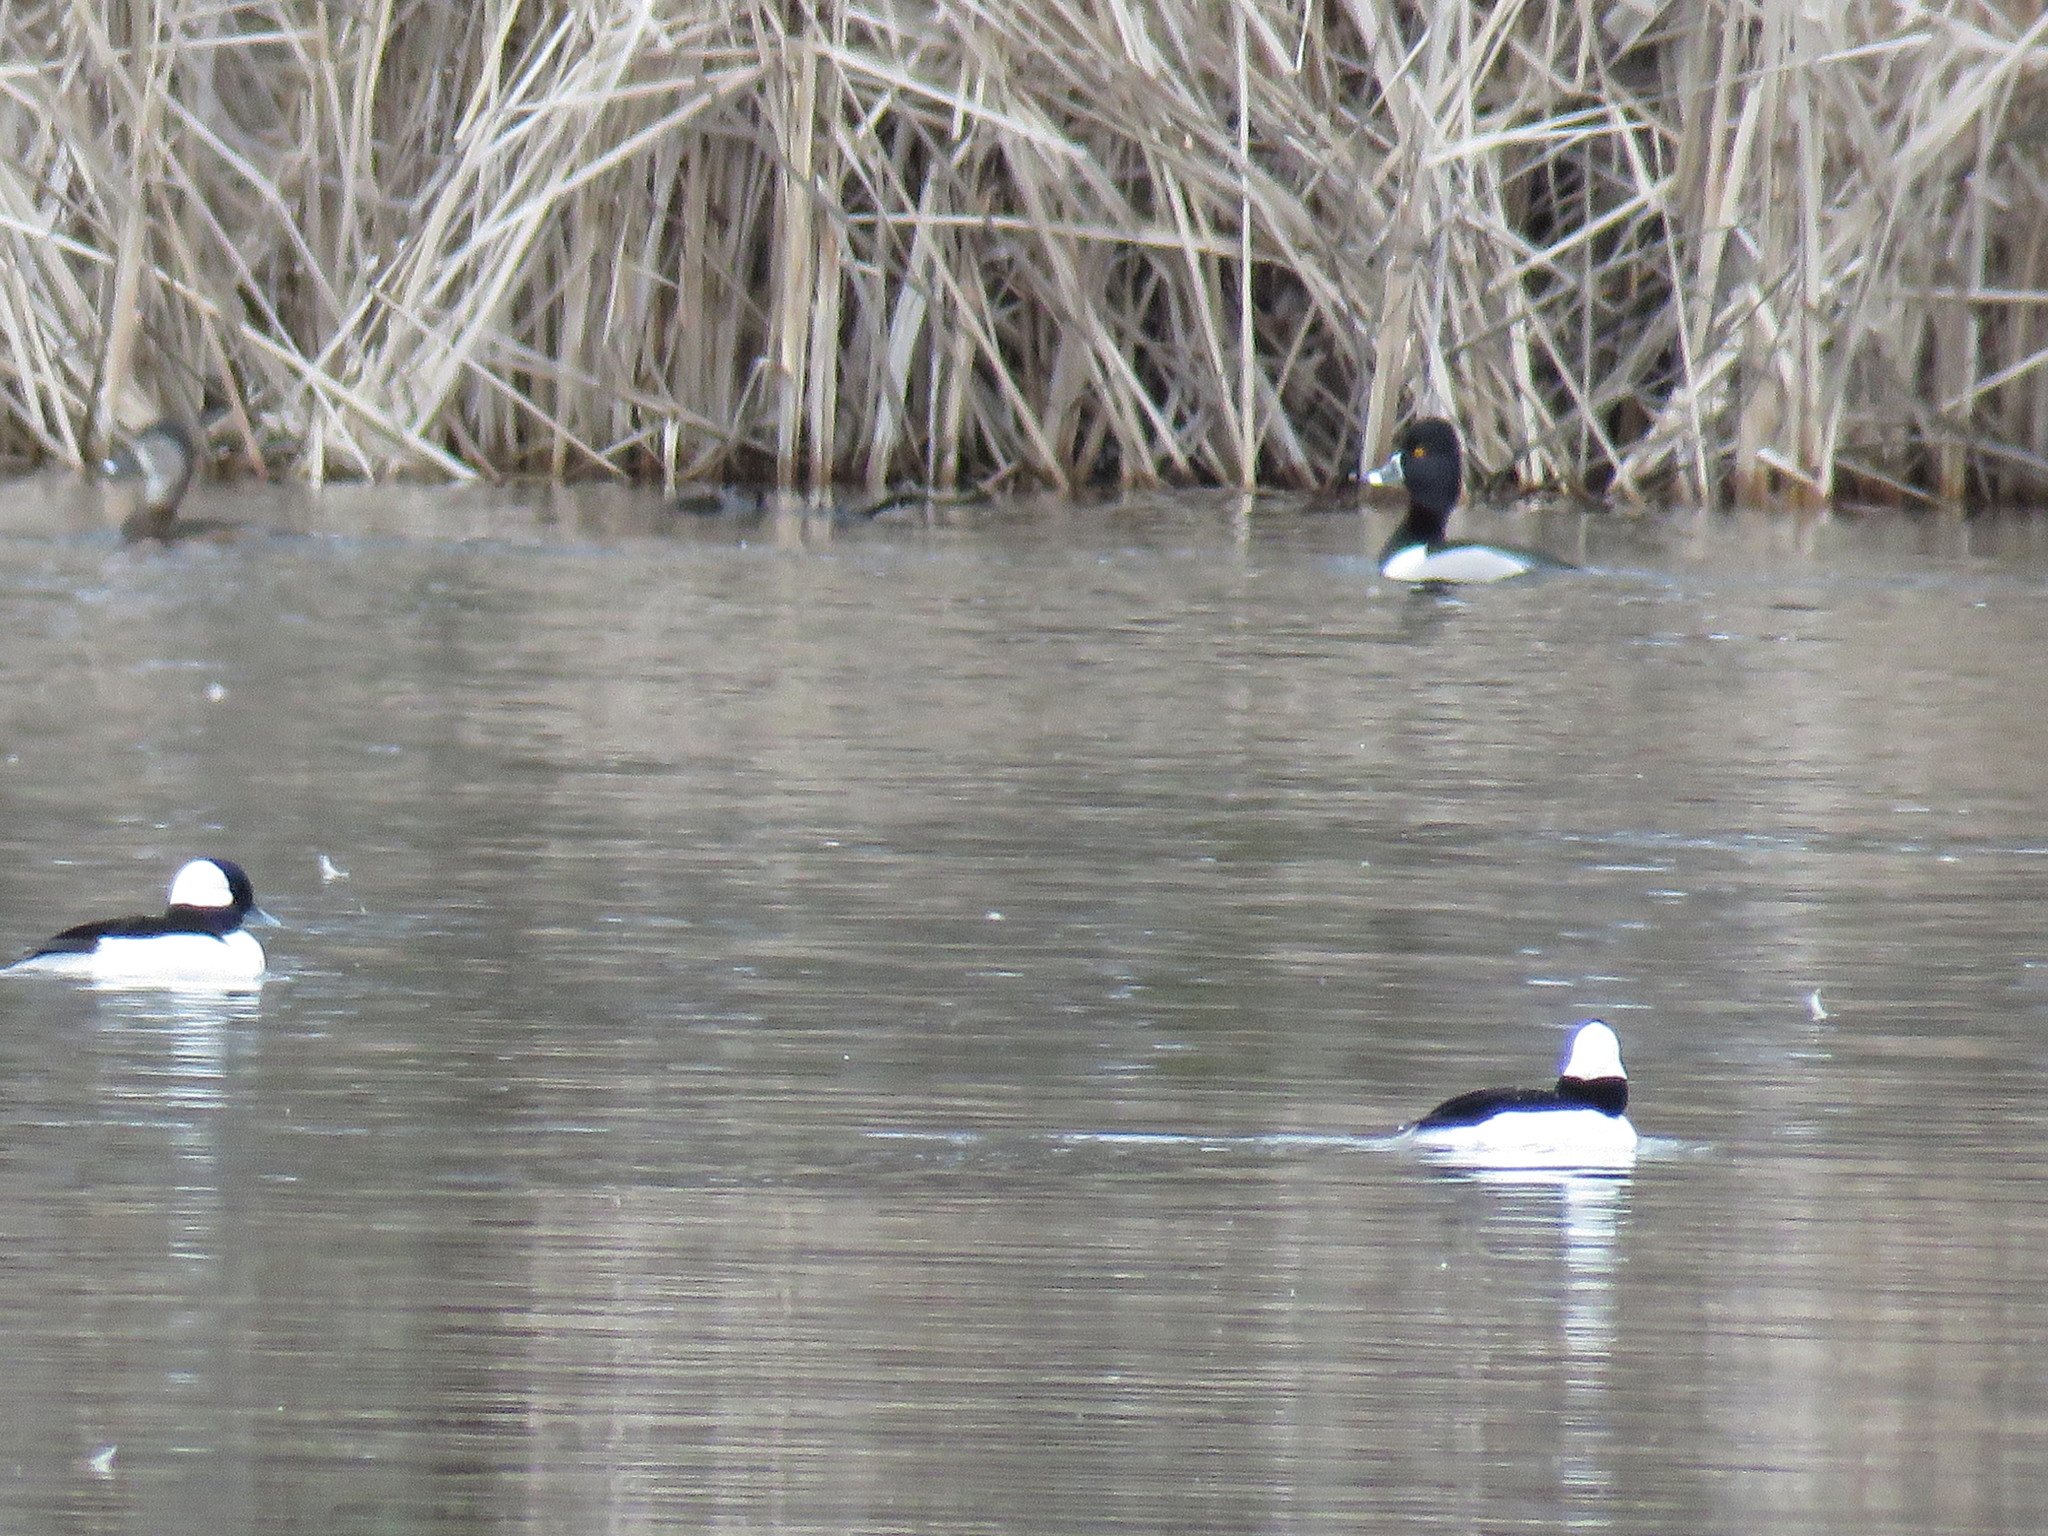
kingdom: Animalia
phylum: Chordata
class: Aves
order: Anseriformes
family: Anatidae
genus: Bucephala
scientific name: Bucephala albeola
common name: Bufflehead
